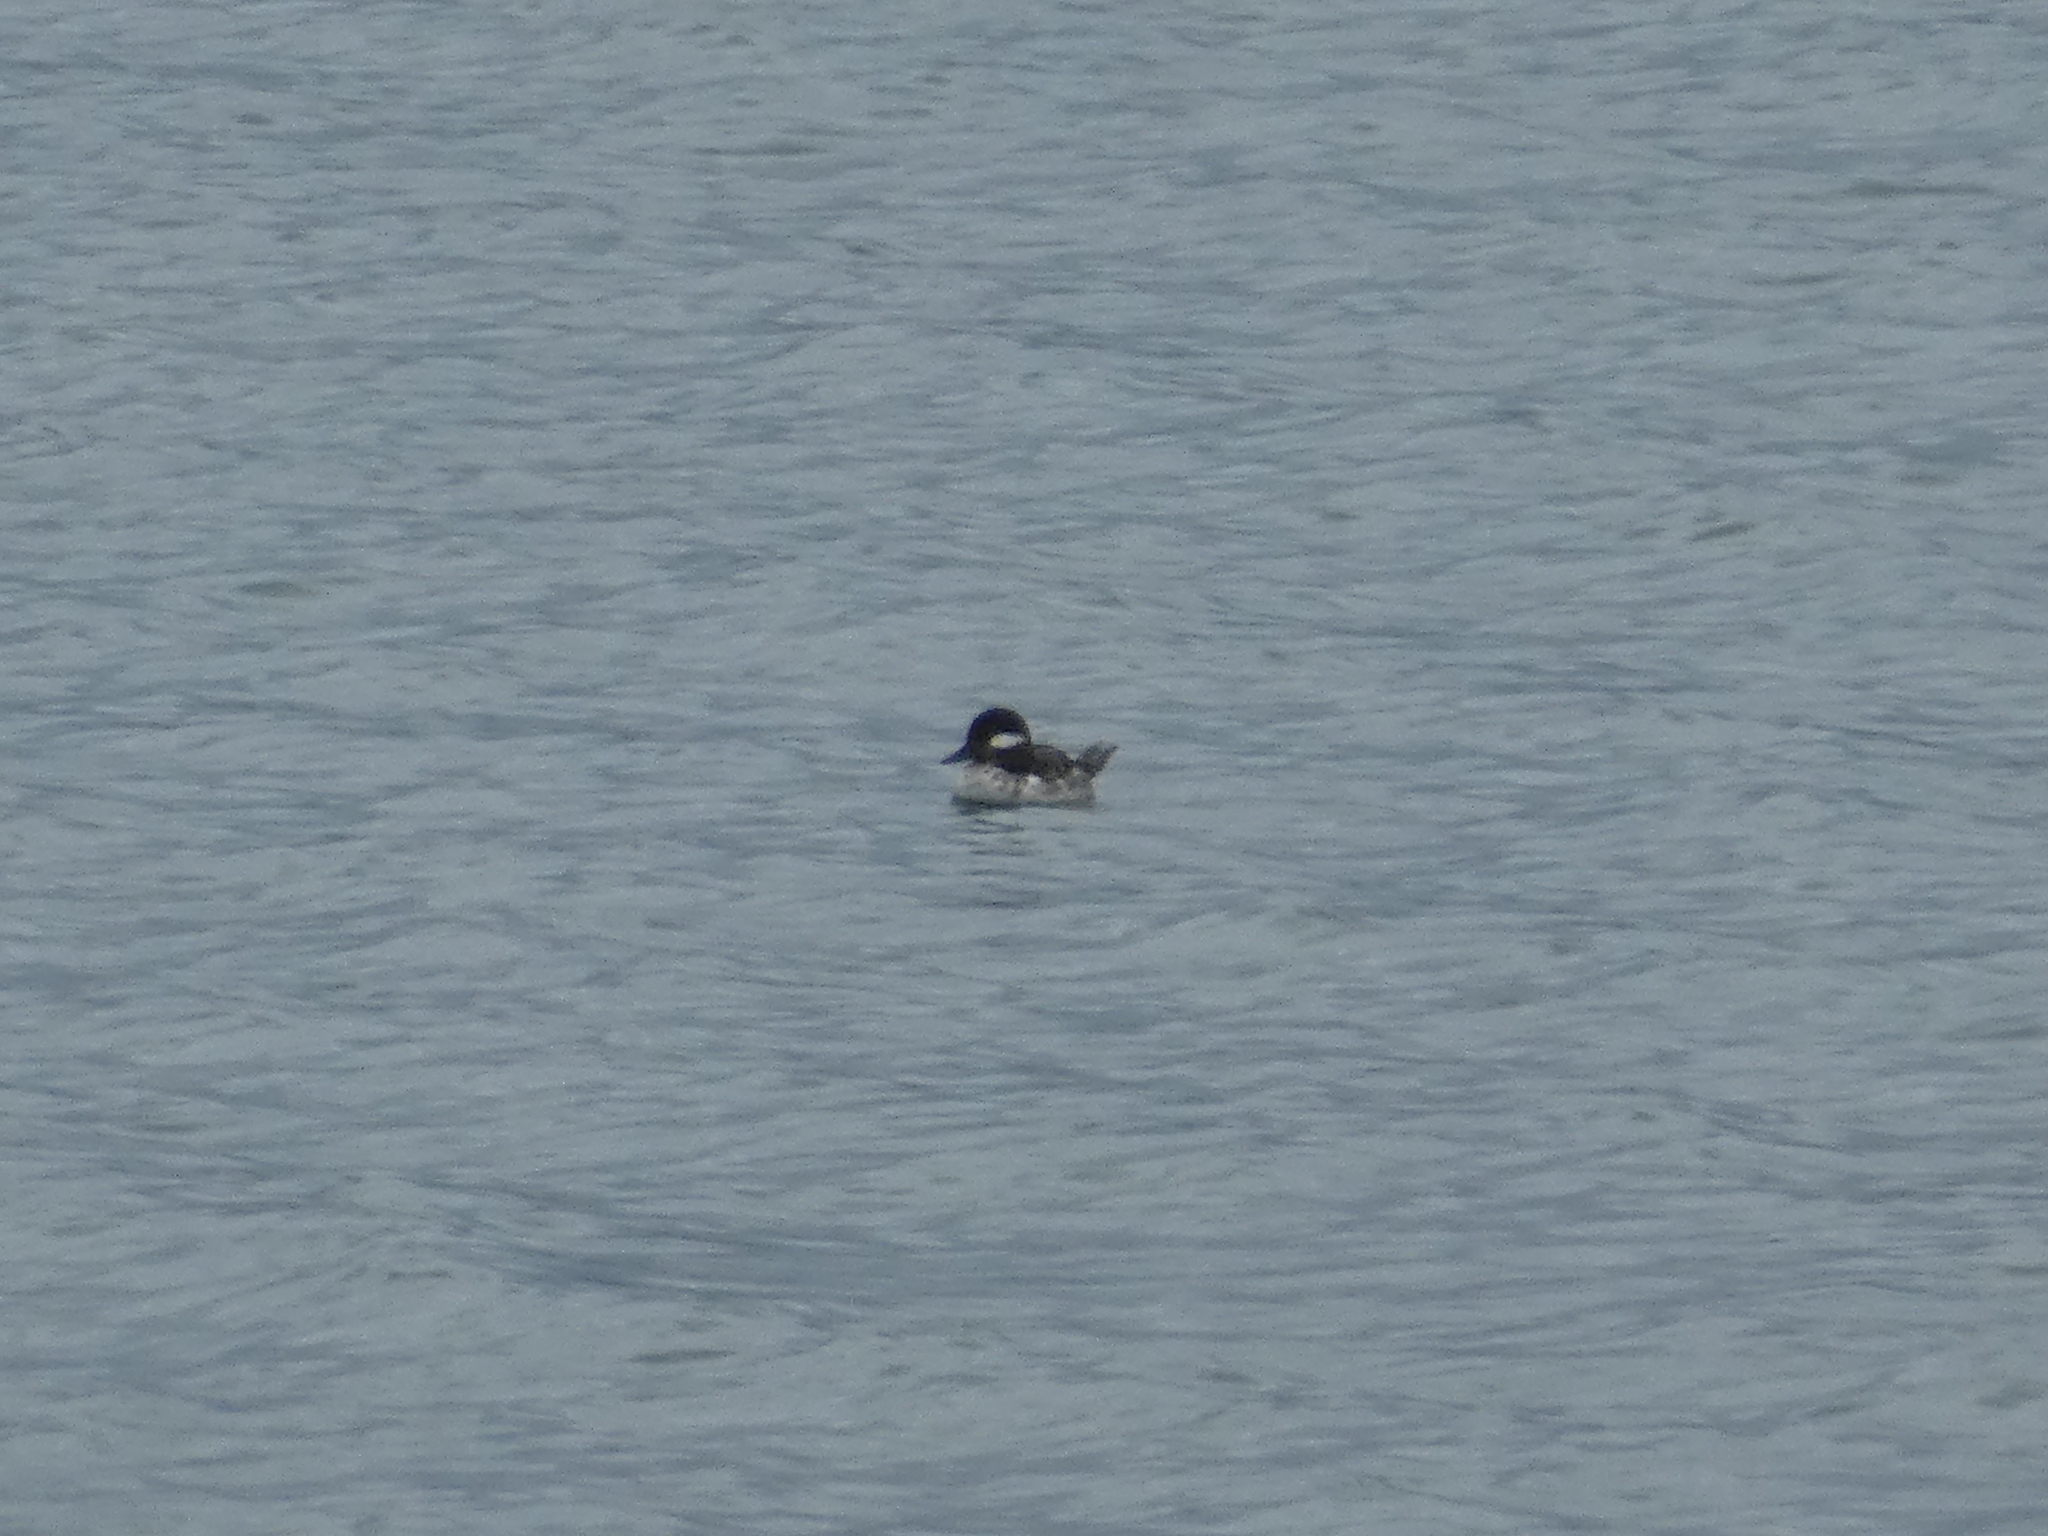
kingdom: Animalia
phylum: Chordata
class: Aves
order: Anseriformes
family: Anatidae
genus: Bucephala
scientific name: Bucephala albeola
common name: Bufflehead
